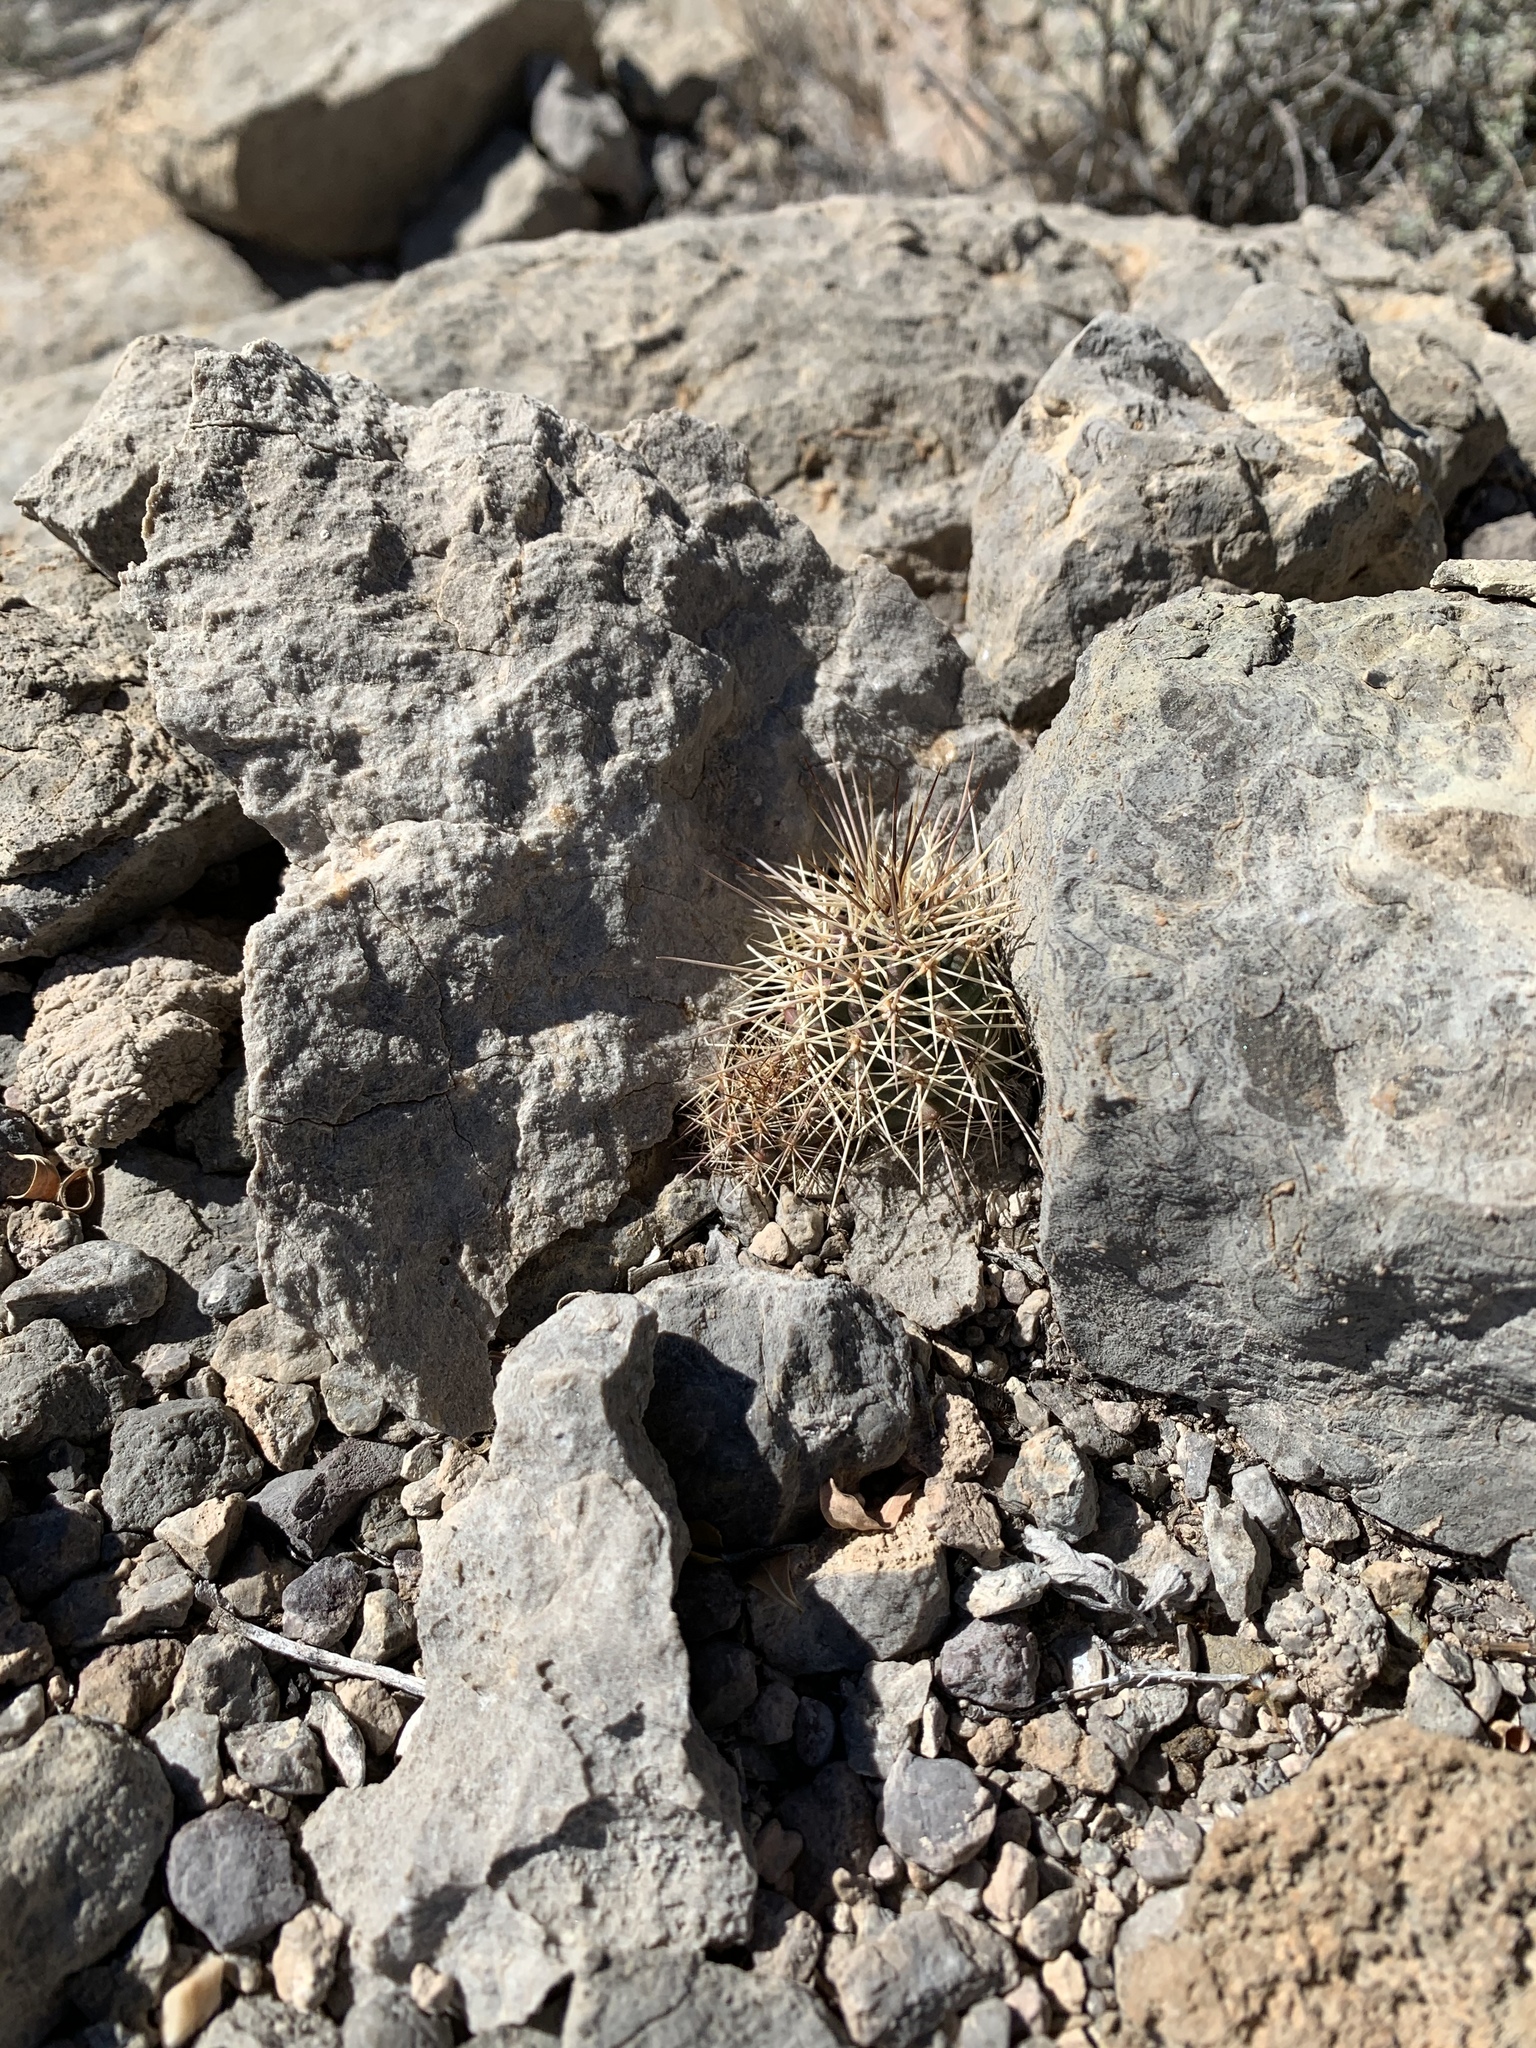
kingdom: Plantae
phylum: Tracheophyta
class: Magnoliopsida
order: Caryophyllales
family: Cactaceae
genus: Echinocereus
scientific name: Echinocereus coccineus
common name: Scarlet hedgehog cactus
